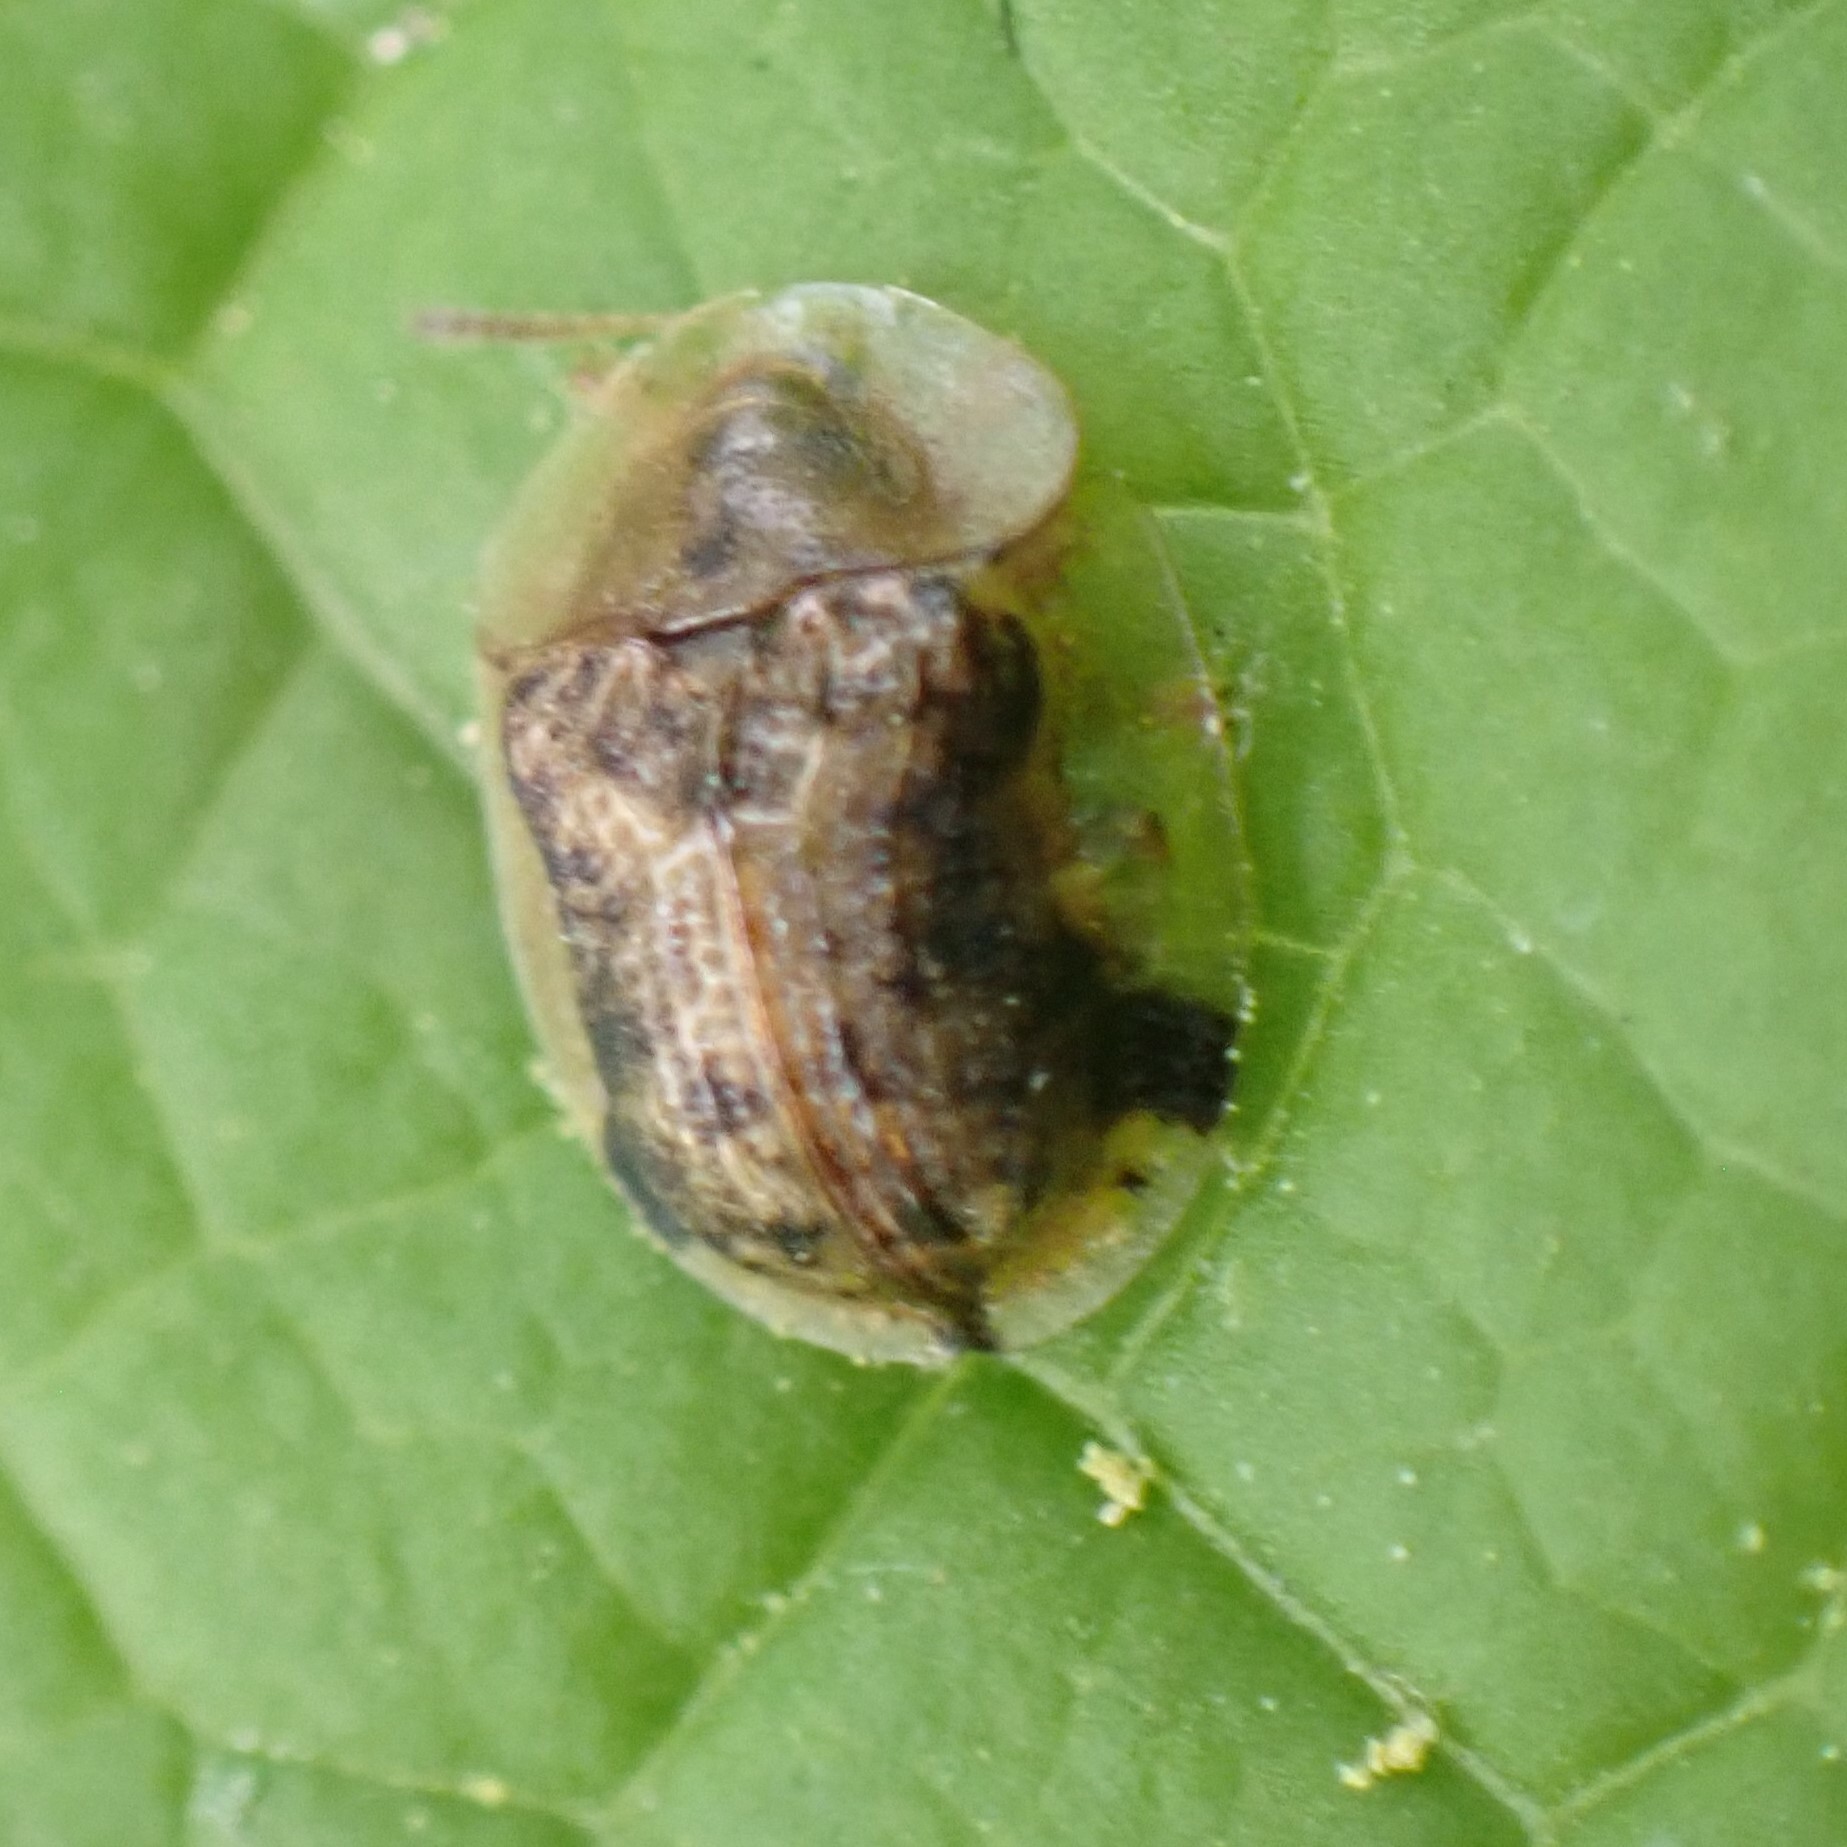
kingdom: Animalia
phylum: Arthropoda
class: Insecta
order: Coleoptera
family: Chrysomelidae
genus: Cassida
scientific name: Cassida piperata
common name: Small tortoise beetle
